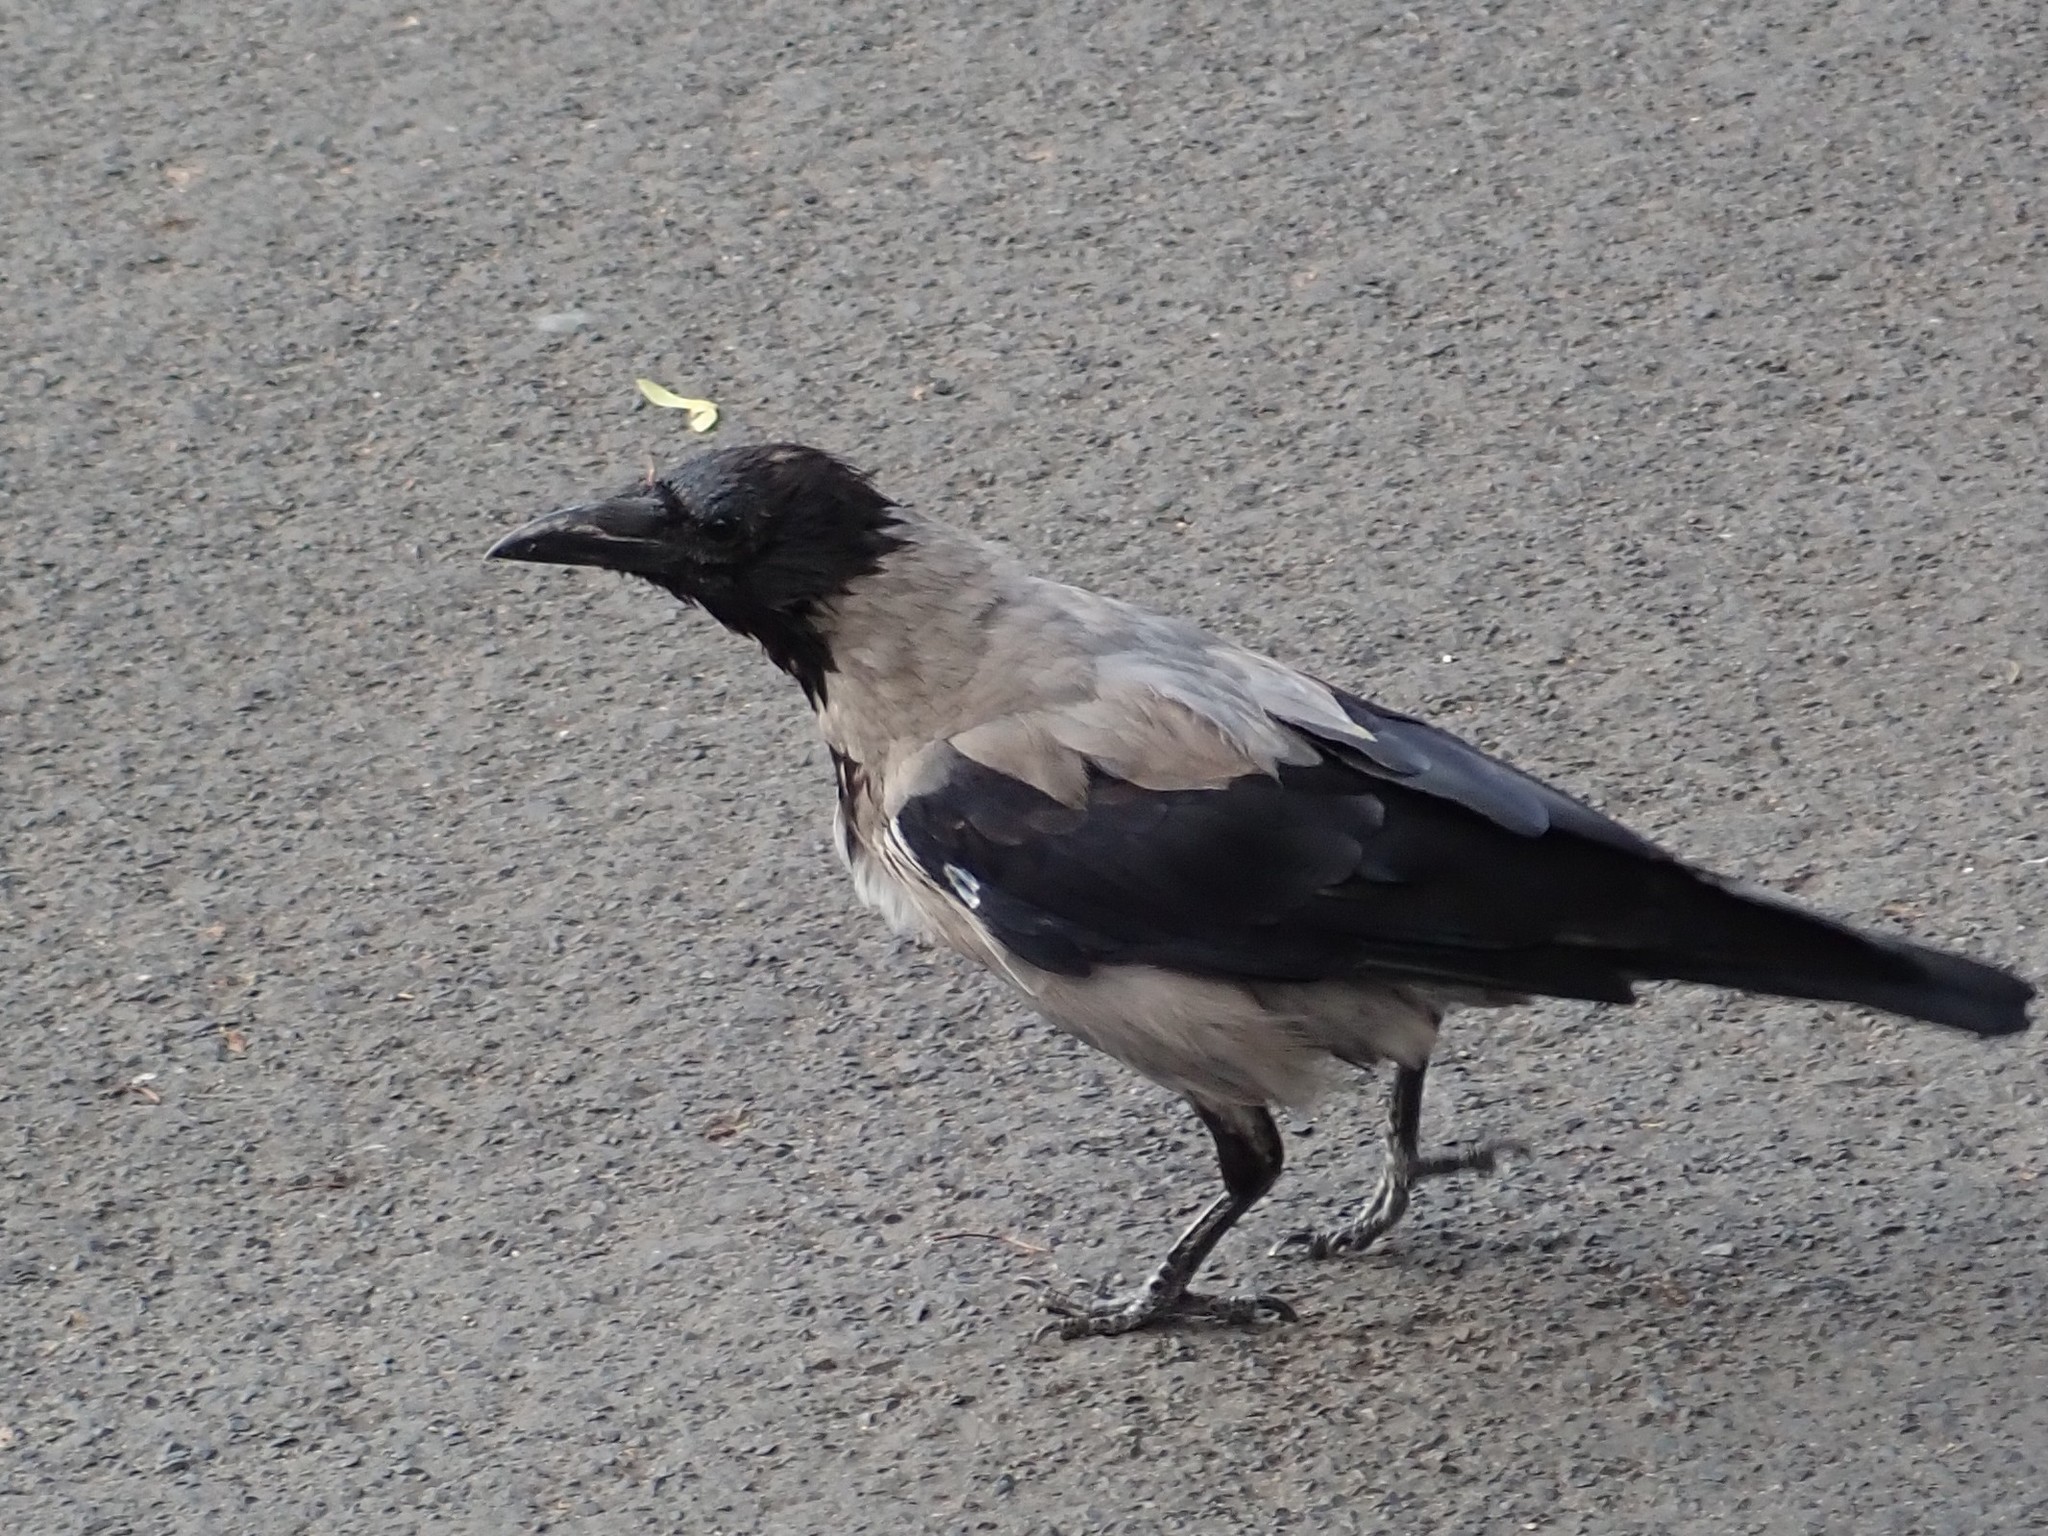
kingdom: Animalia
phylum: Chordata
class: Aves
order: Passeriformes
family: Corvidae
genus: Corvus
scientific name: Corvus cornix
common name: Hooded crow
